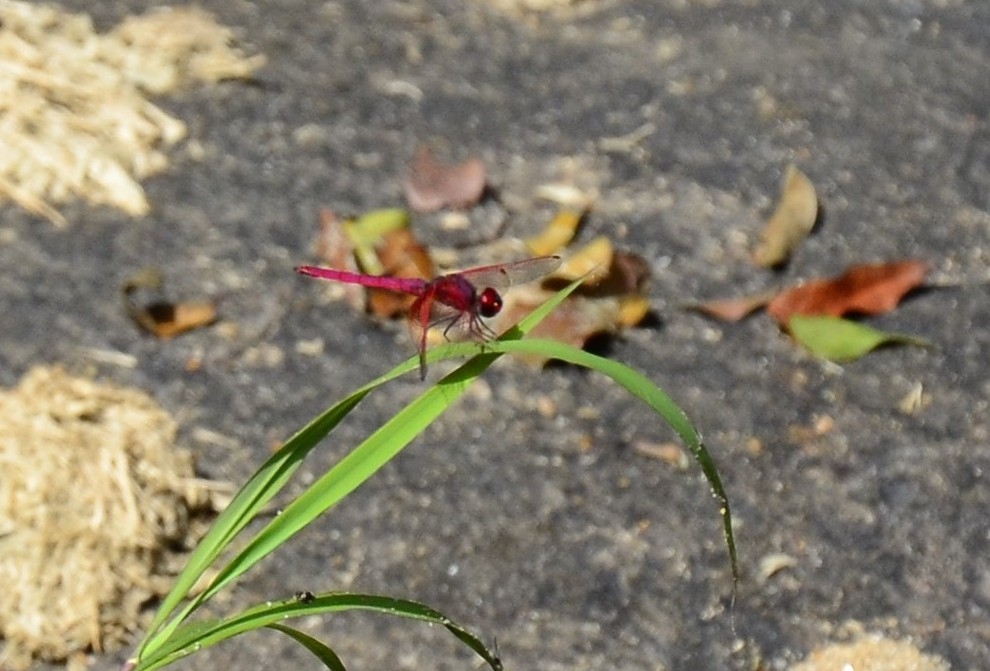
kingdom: Animalia
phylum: Arthropoda
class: Insecta
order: Odonata
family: Libellulidae
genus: Trithemis
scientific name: Trithemis aurora
